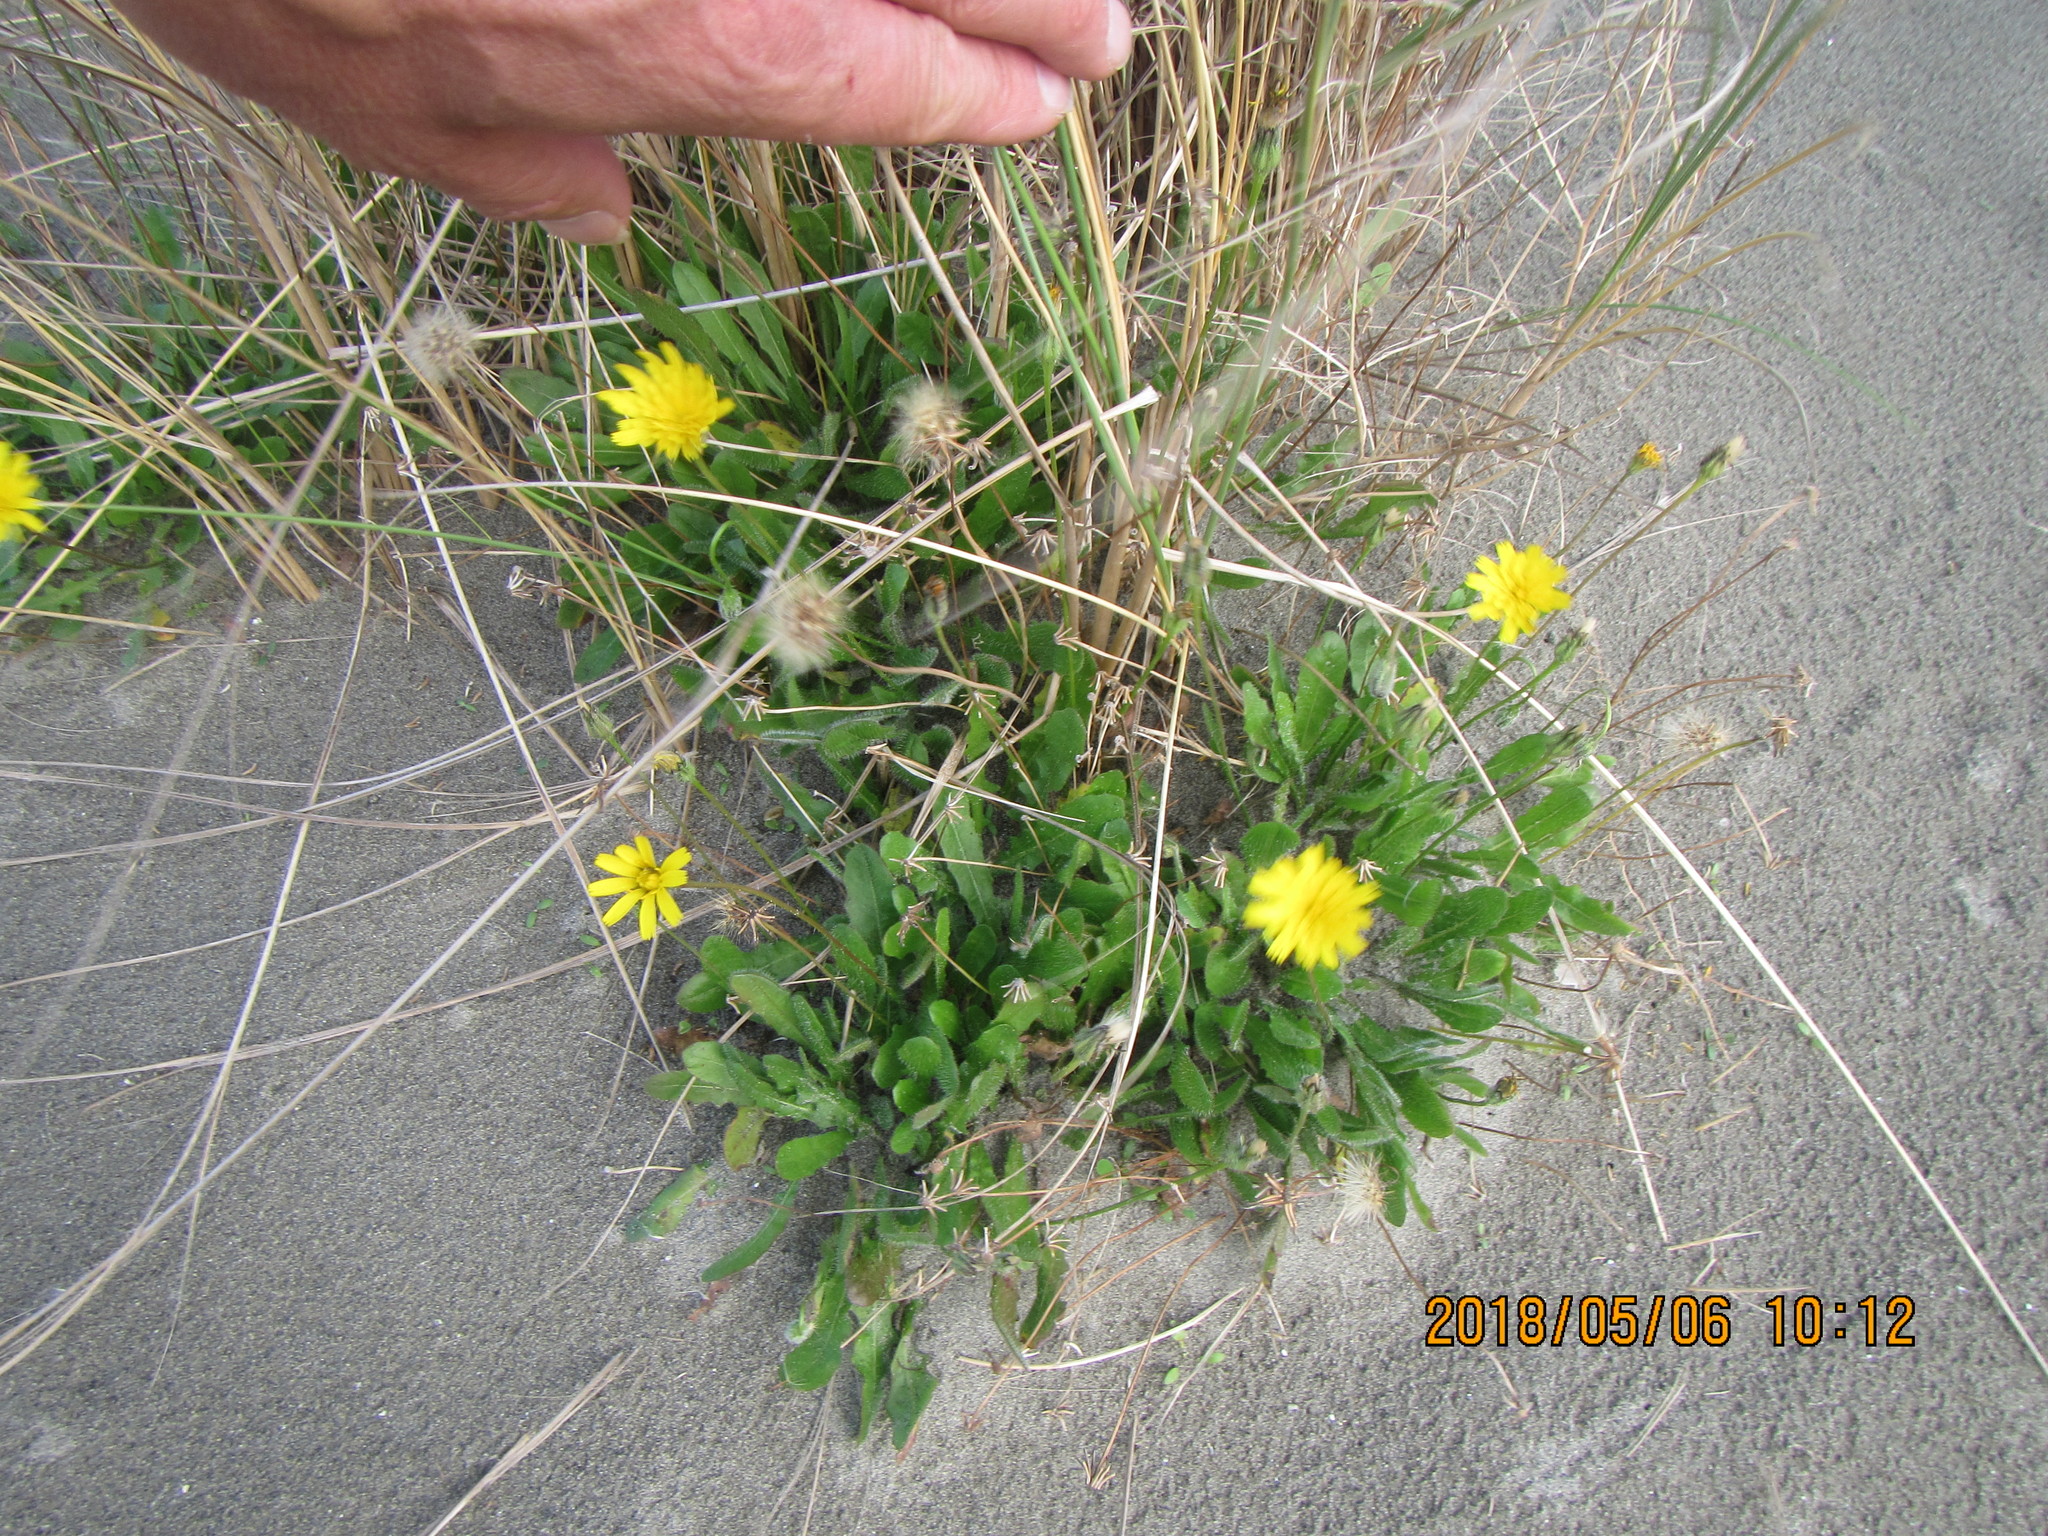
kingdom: Plantae
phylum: Tracheophyta
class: Magnoliopsida
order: Asterales
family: Asteraceae
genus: Hypochaeris
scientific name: Hypochaeris radicata
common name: Flatweed
